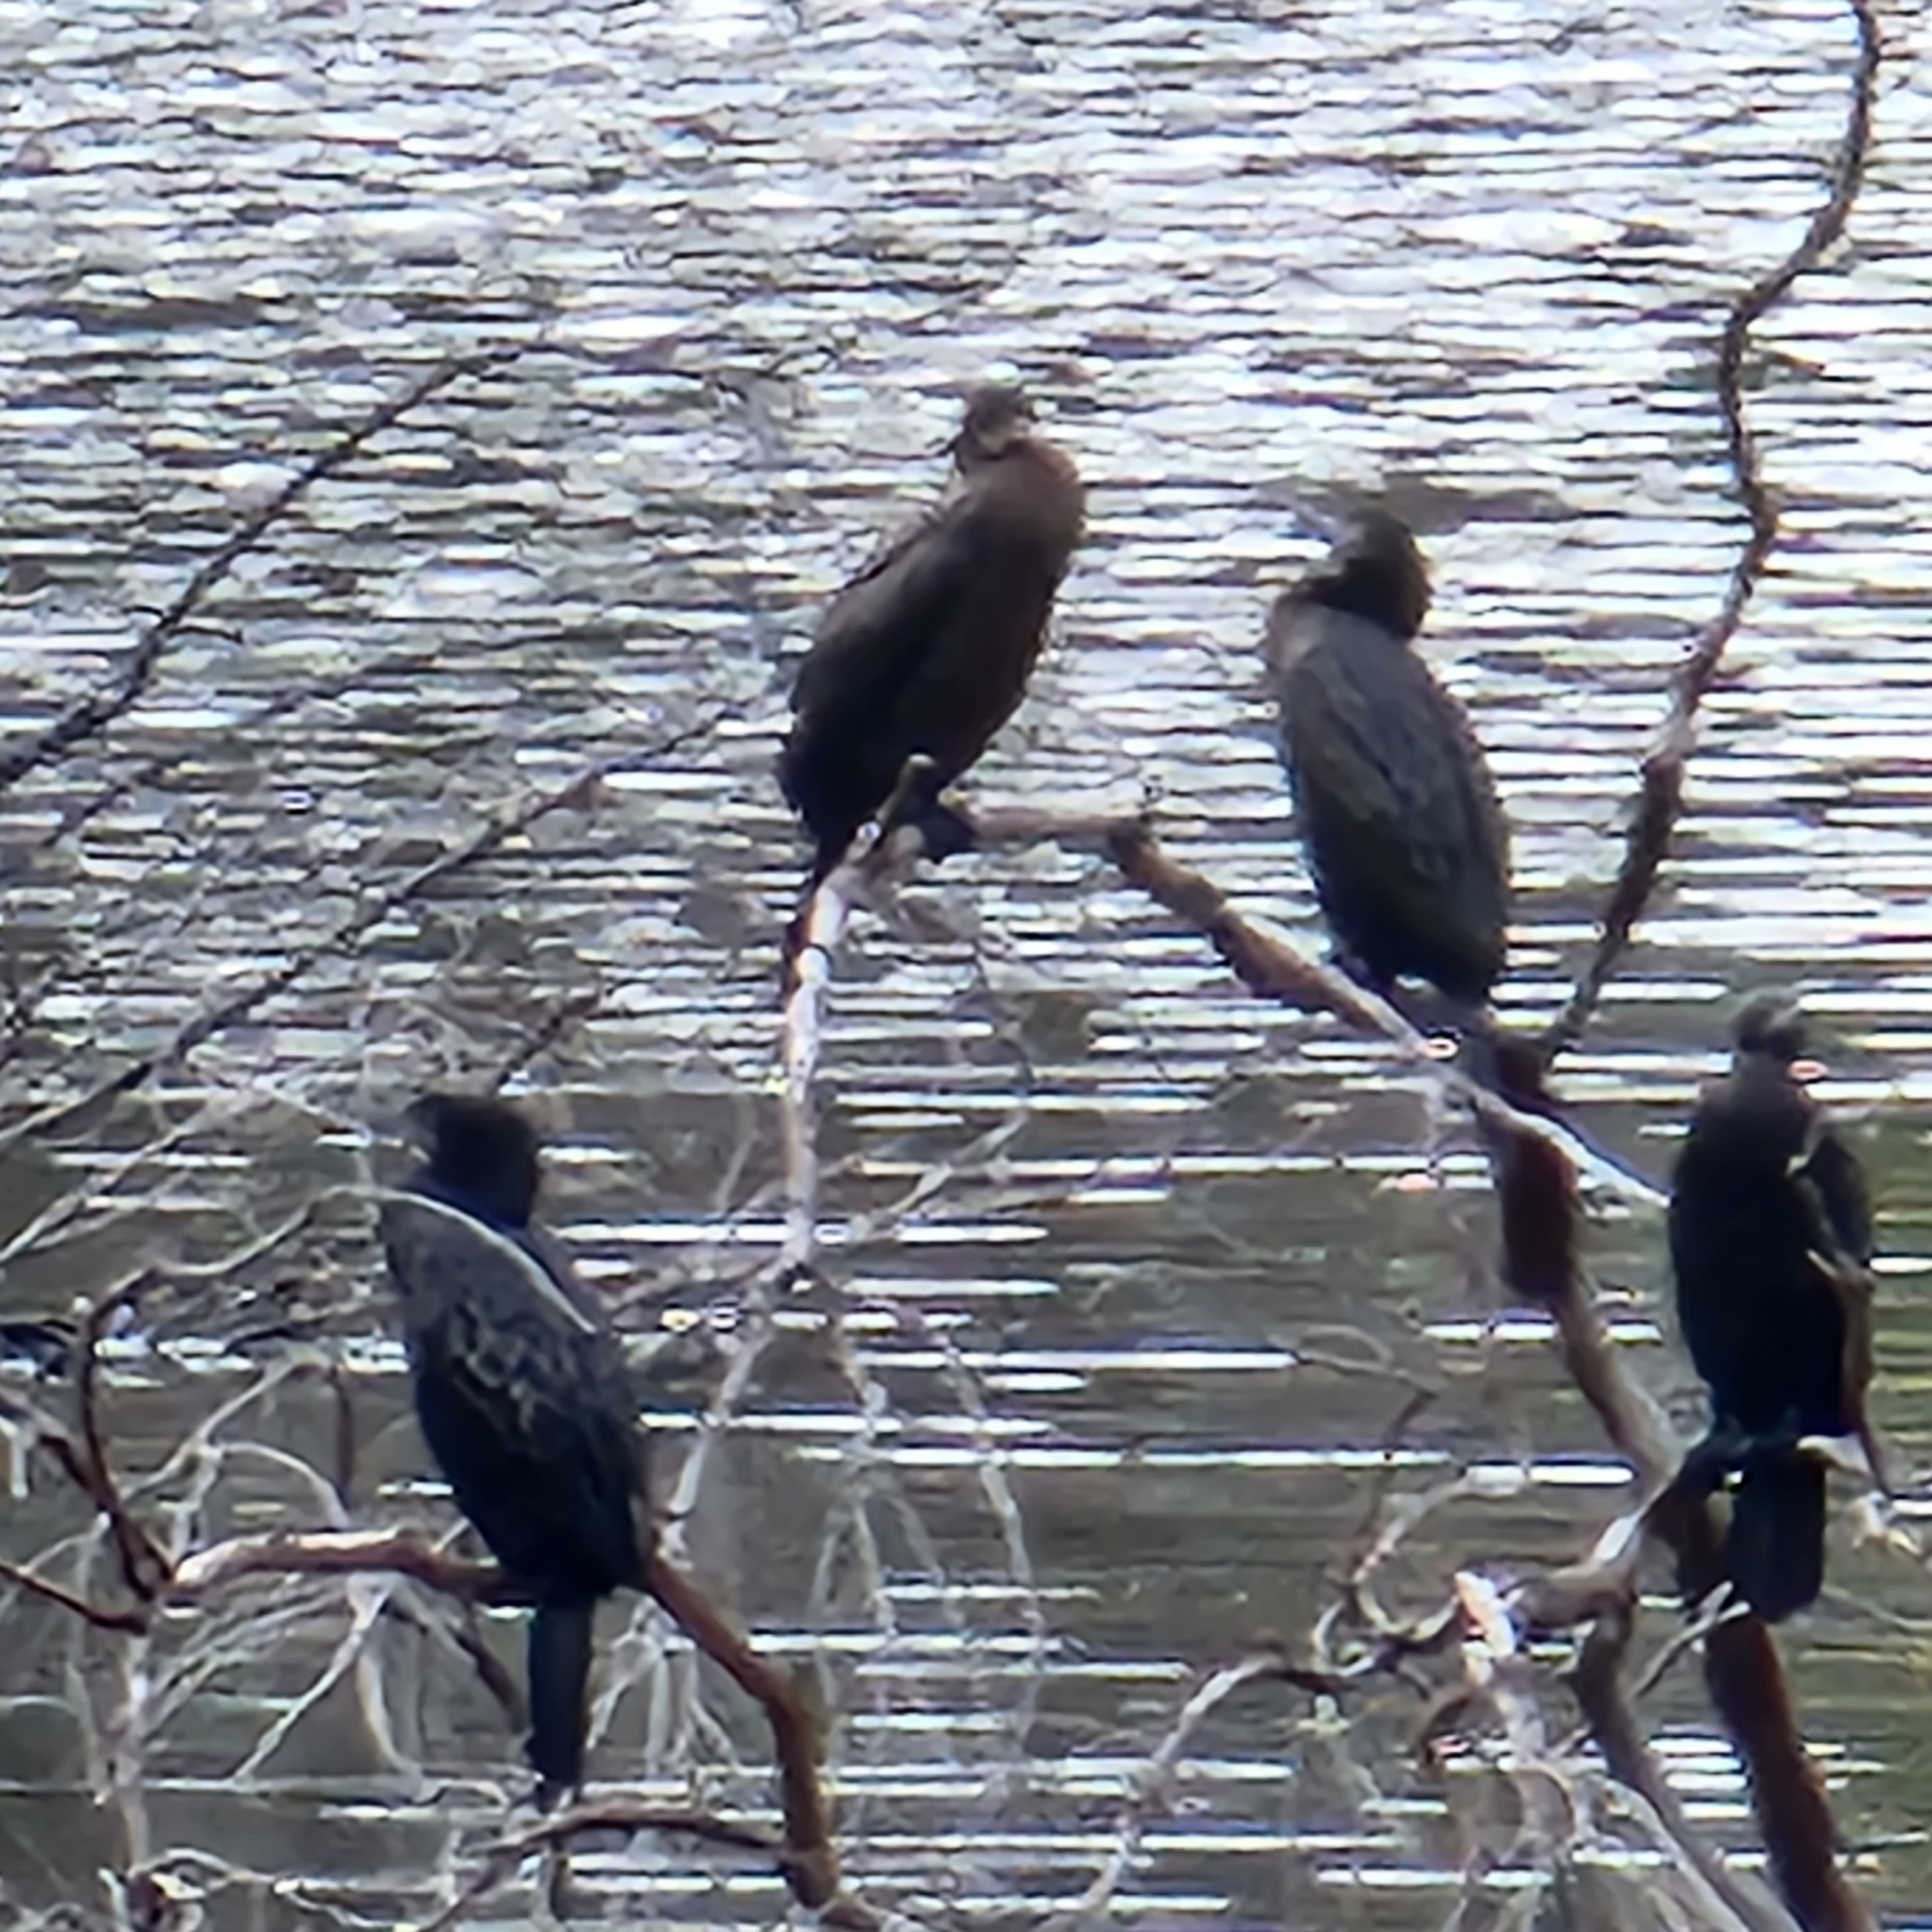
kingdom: Animalia
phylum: Chordata
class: Aves
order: Suliformes
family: Phalacrocoracidae
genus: Phalacrocorax
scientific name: Phalacrocorax sulcirostris
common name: Little black cormorant
